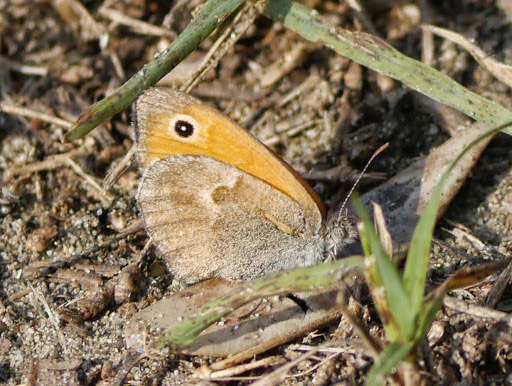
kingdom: Animalia
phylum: Arthropoda
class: Insecta
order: Lepidoptera
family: Nymphalidae
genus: Coenonympha
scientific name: Coenonympha pamphilus
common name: Small heath
